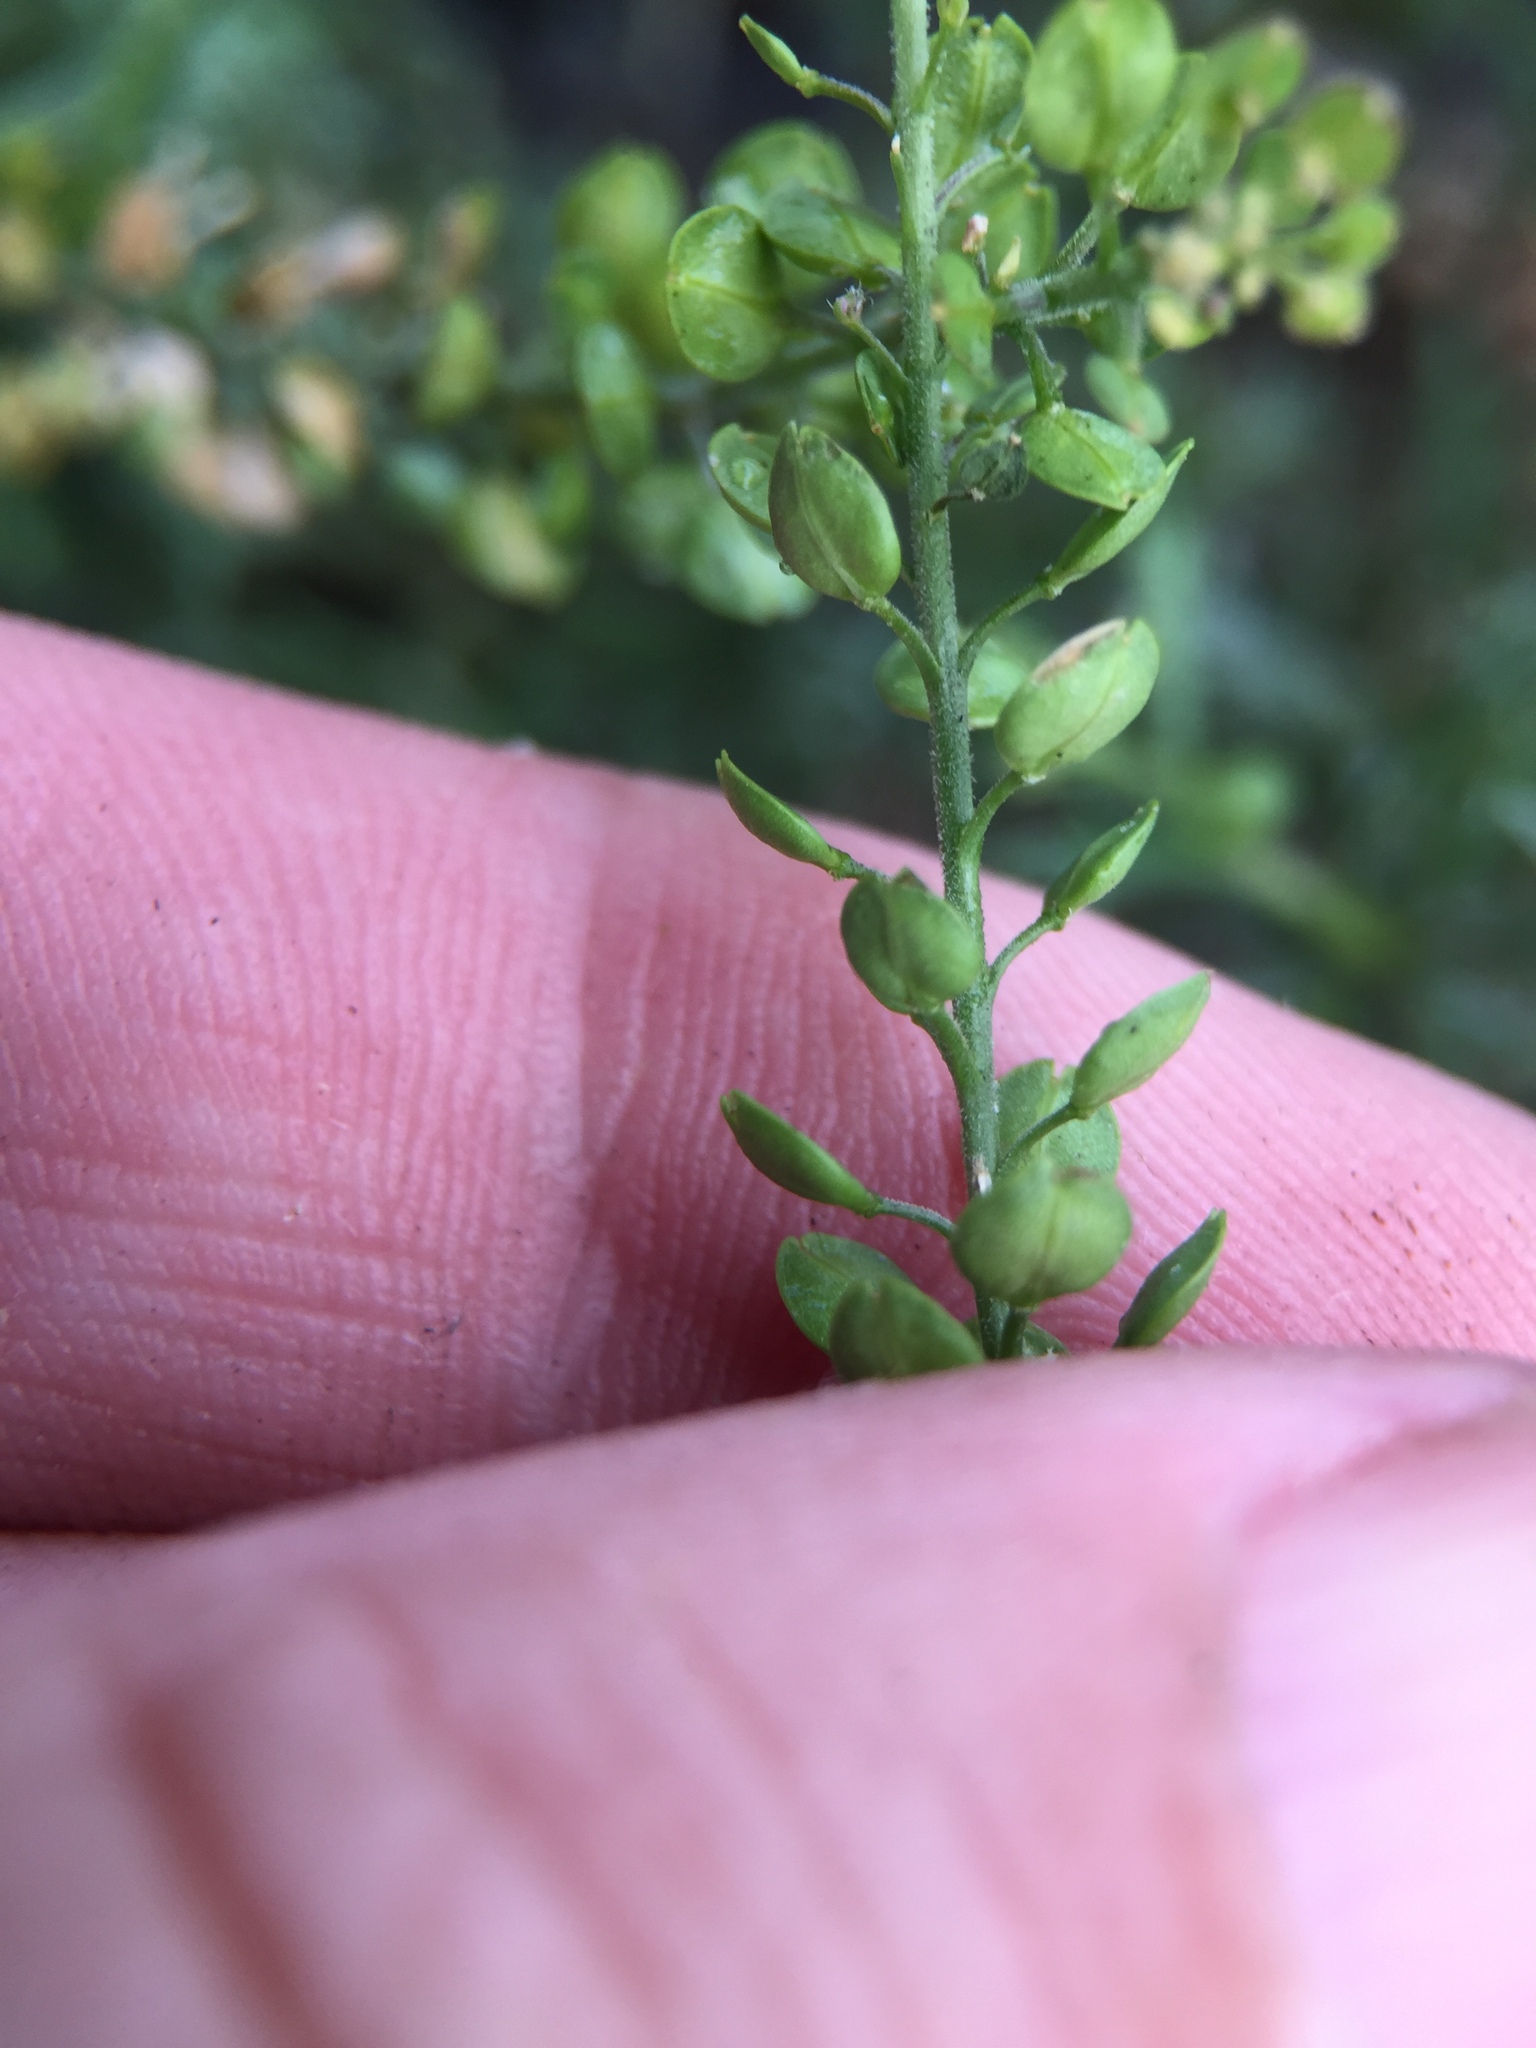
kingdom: Plantae
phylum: Tracheophyta
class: Magnoliopsida
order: Brassicales
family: Brassicaceae
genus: Lepidium
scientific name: Lepidium bonariense
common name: Argentine pepperwort
